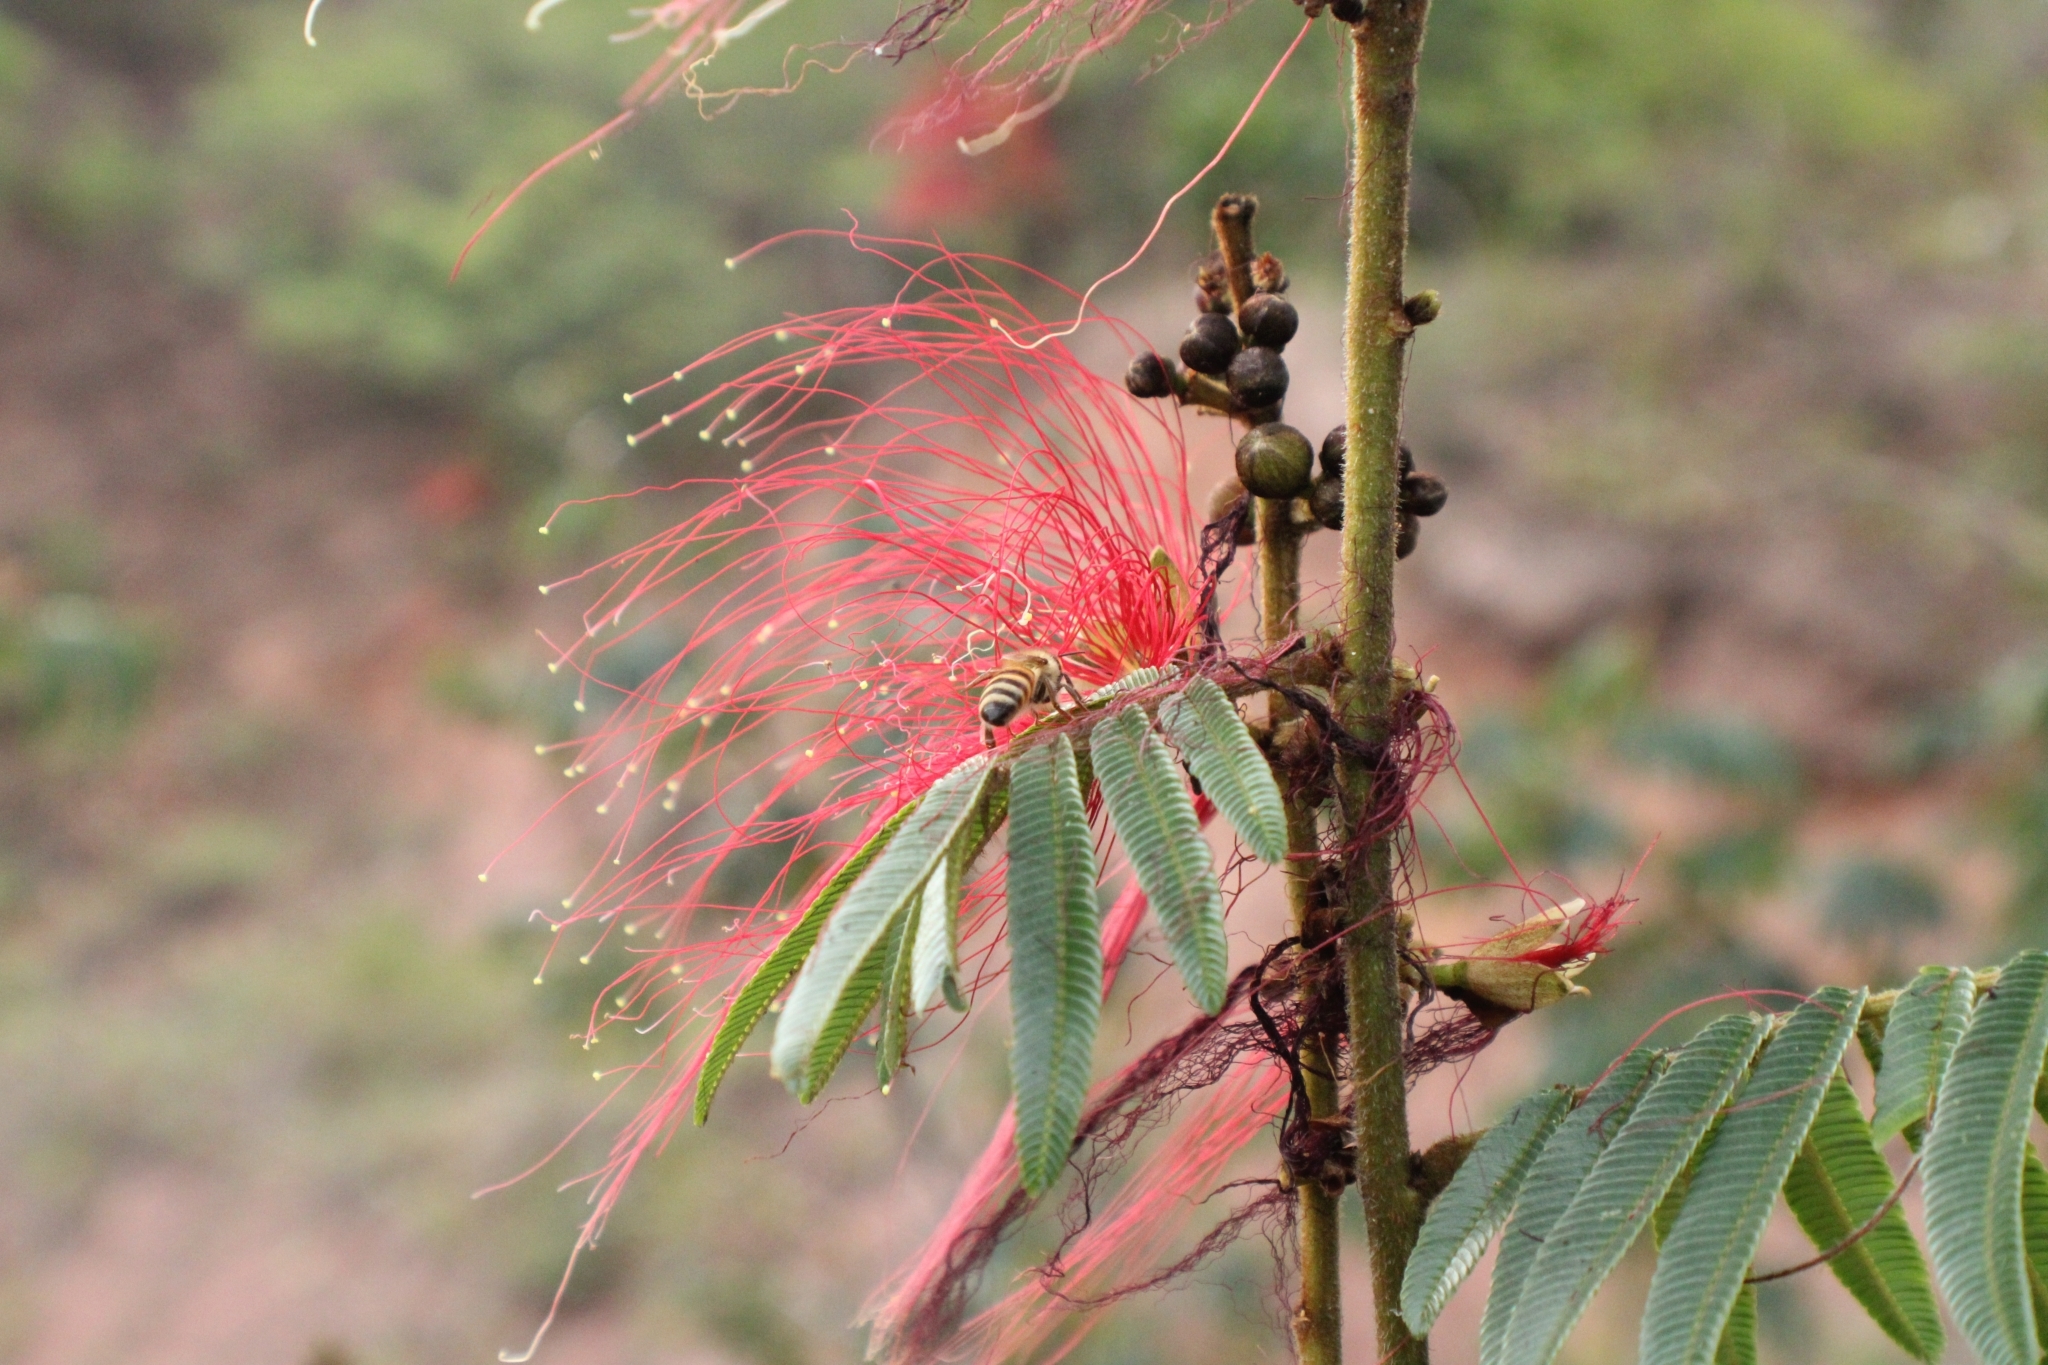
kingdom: Animalia
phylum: Arthropoda
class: Insecta
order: Hymenoptera
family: Apidae
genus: Apis
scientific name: Apis mellifera
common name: Honey bee
